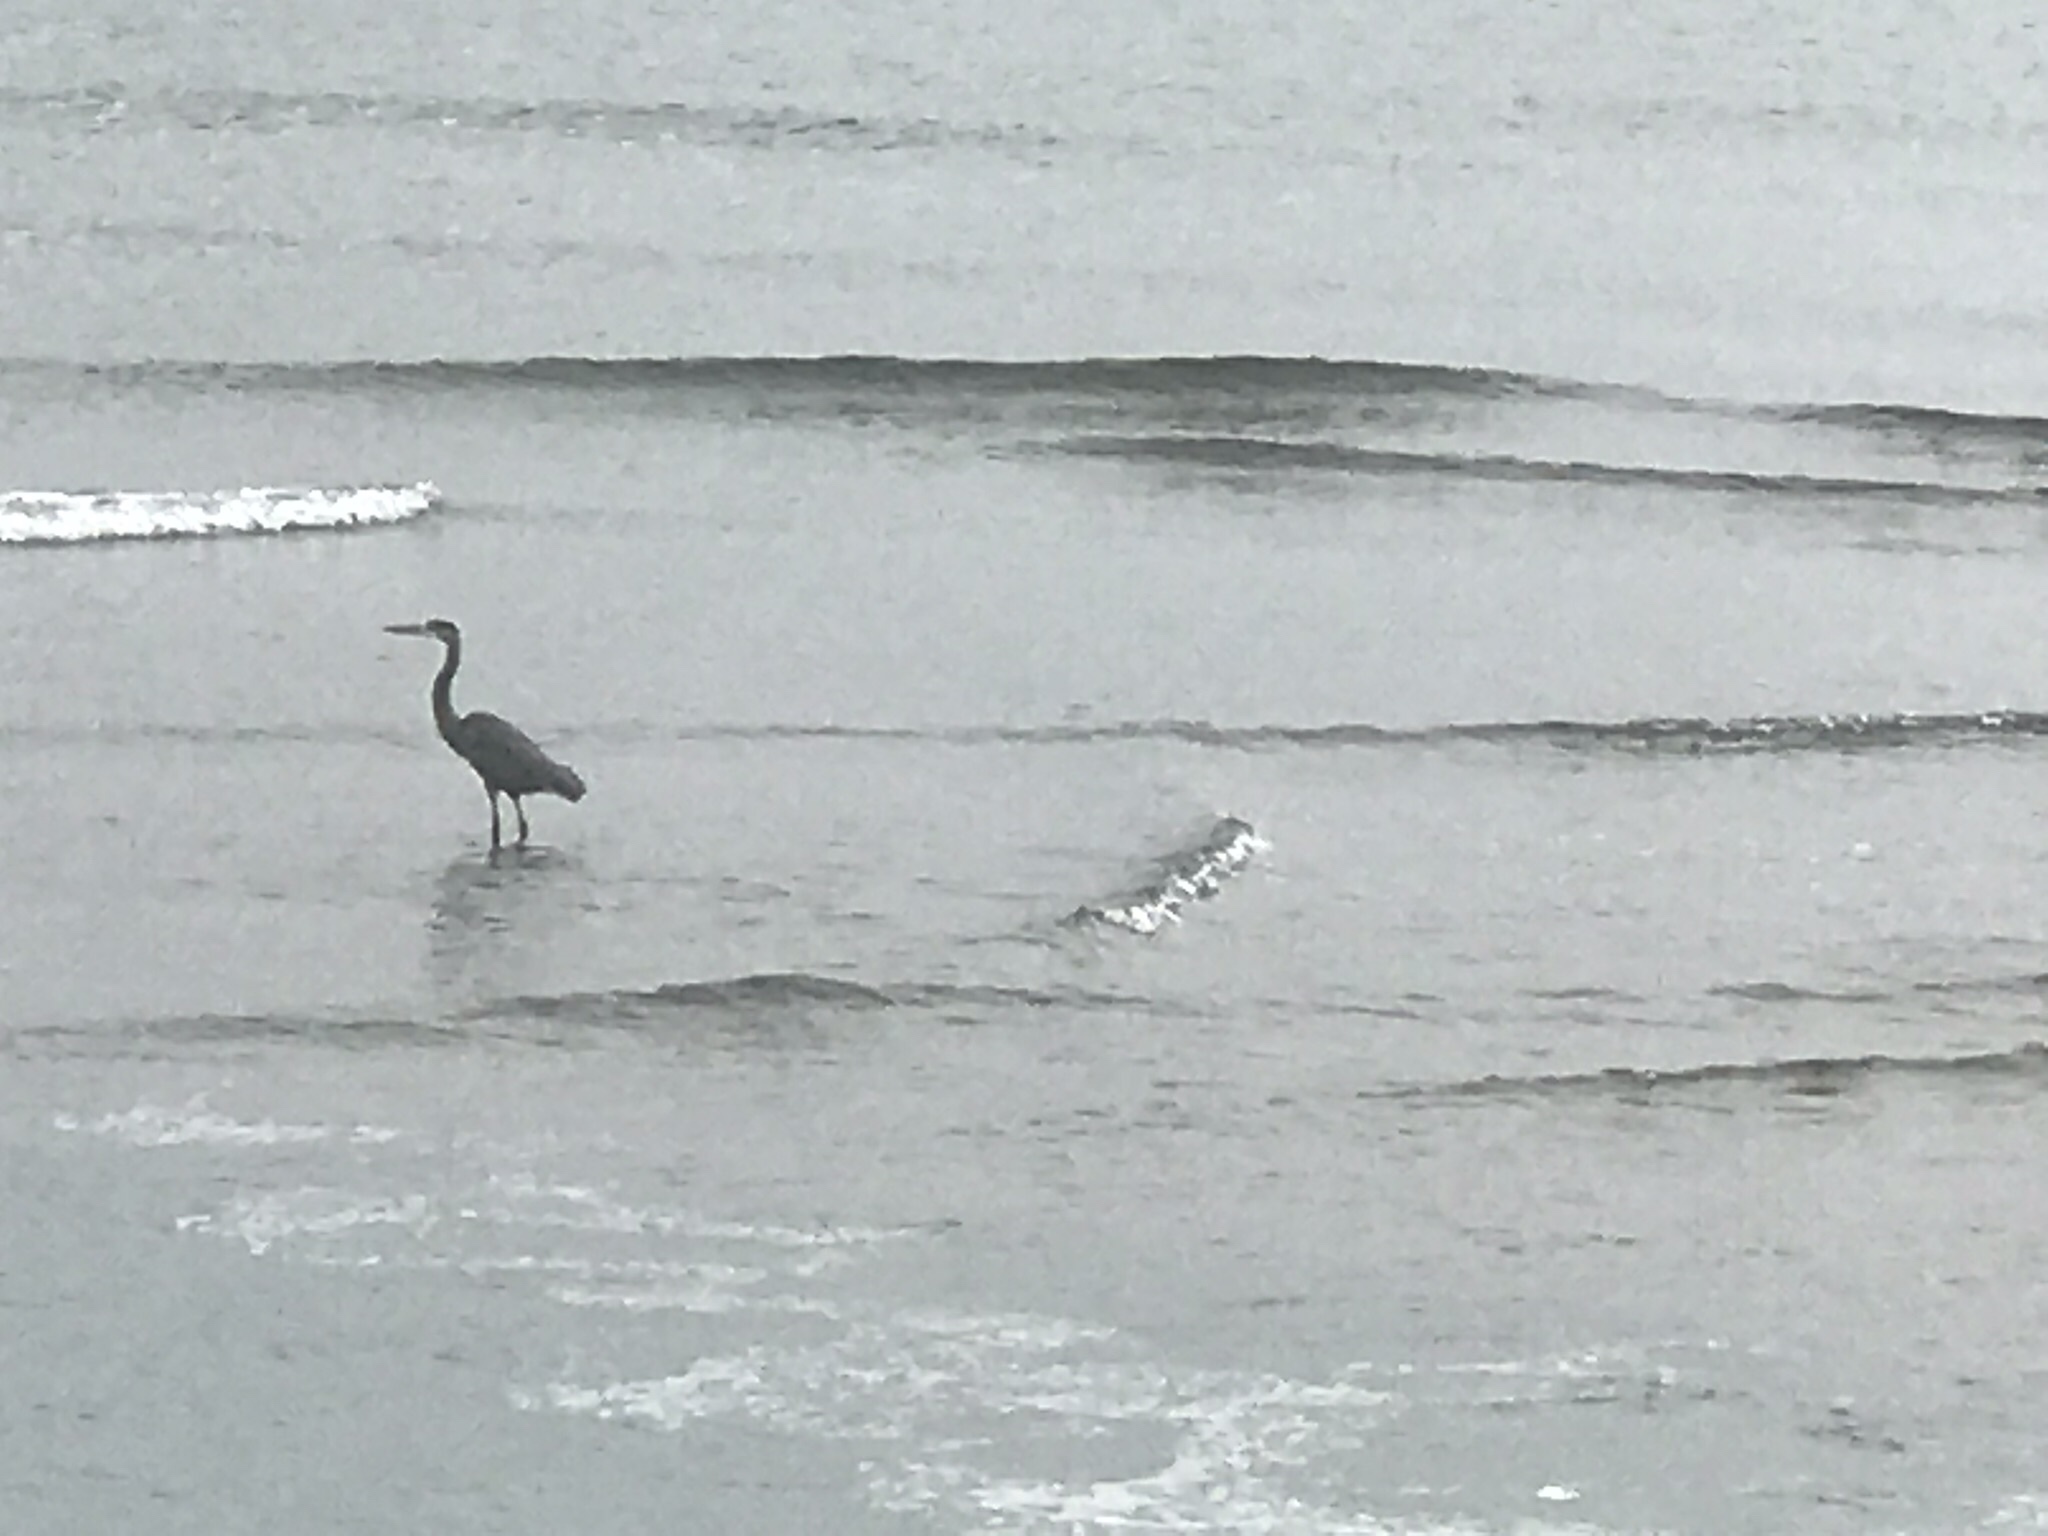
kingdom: Animalia
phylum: Chordata
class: Aves
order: Pelecaniformes
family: Ardeidae
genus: Ardea
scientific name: Ardea herodias
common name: Great blue heron
